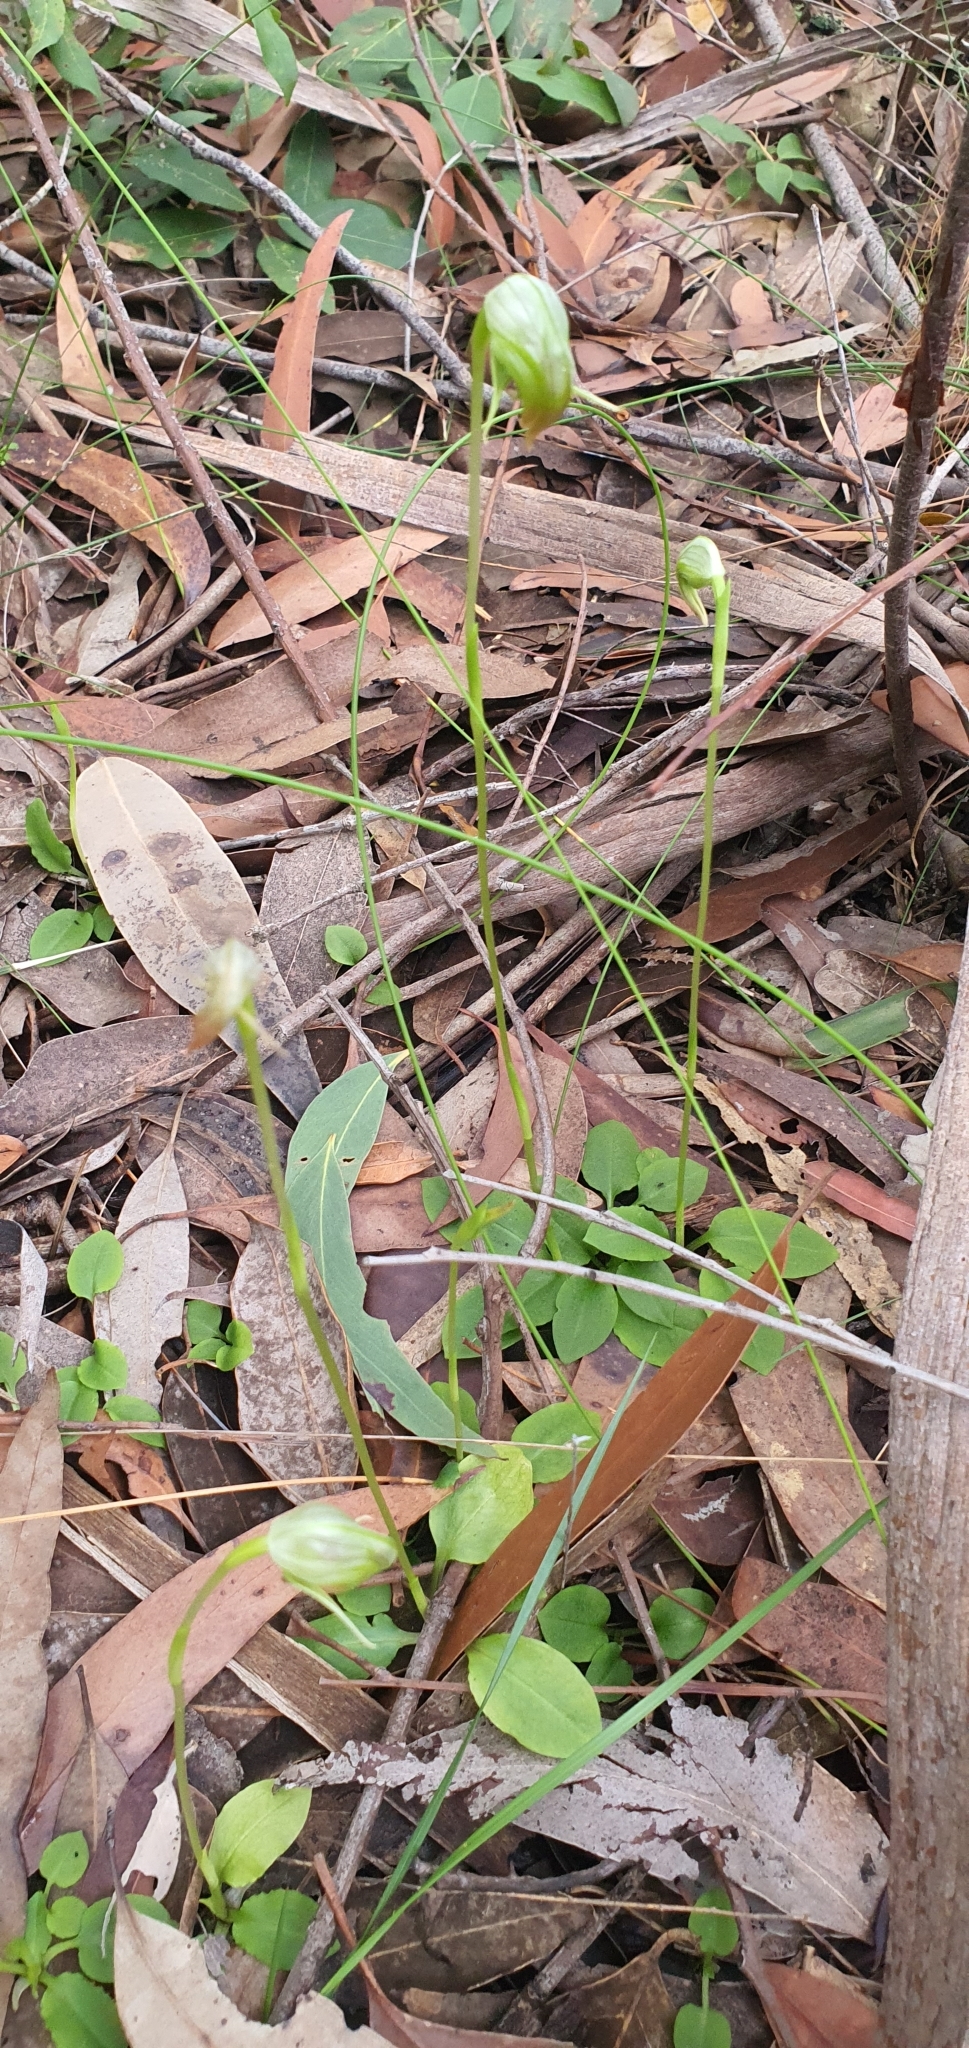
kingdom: Plantae
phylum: Tracheophyta
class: Liliopsida
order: Asparagales
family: Orchidaceae
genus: Pterostylis
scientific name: Pterostylis nutans
